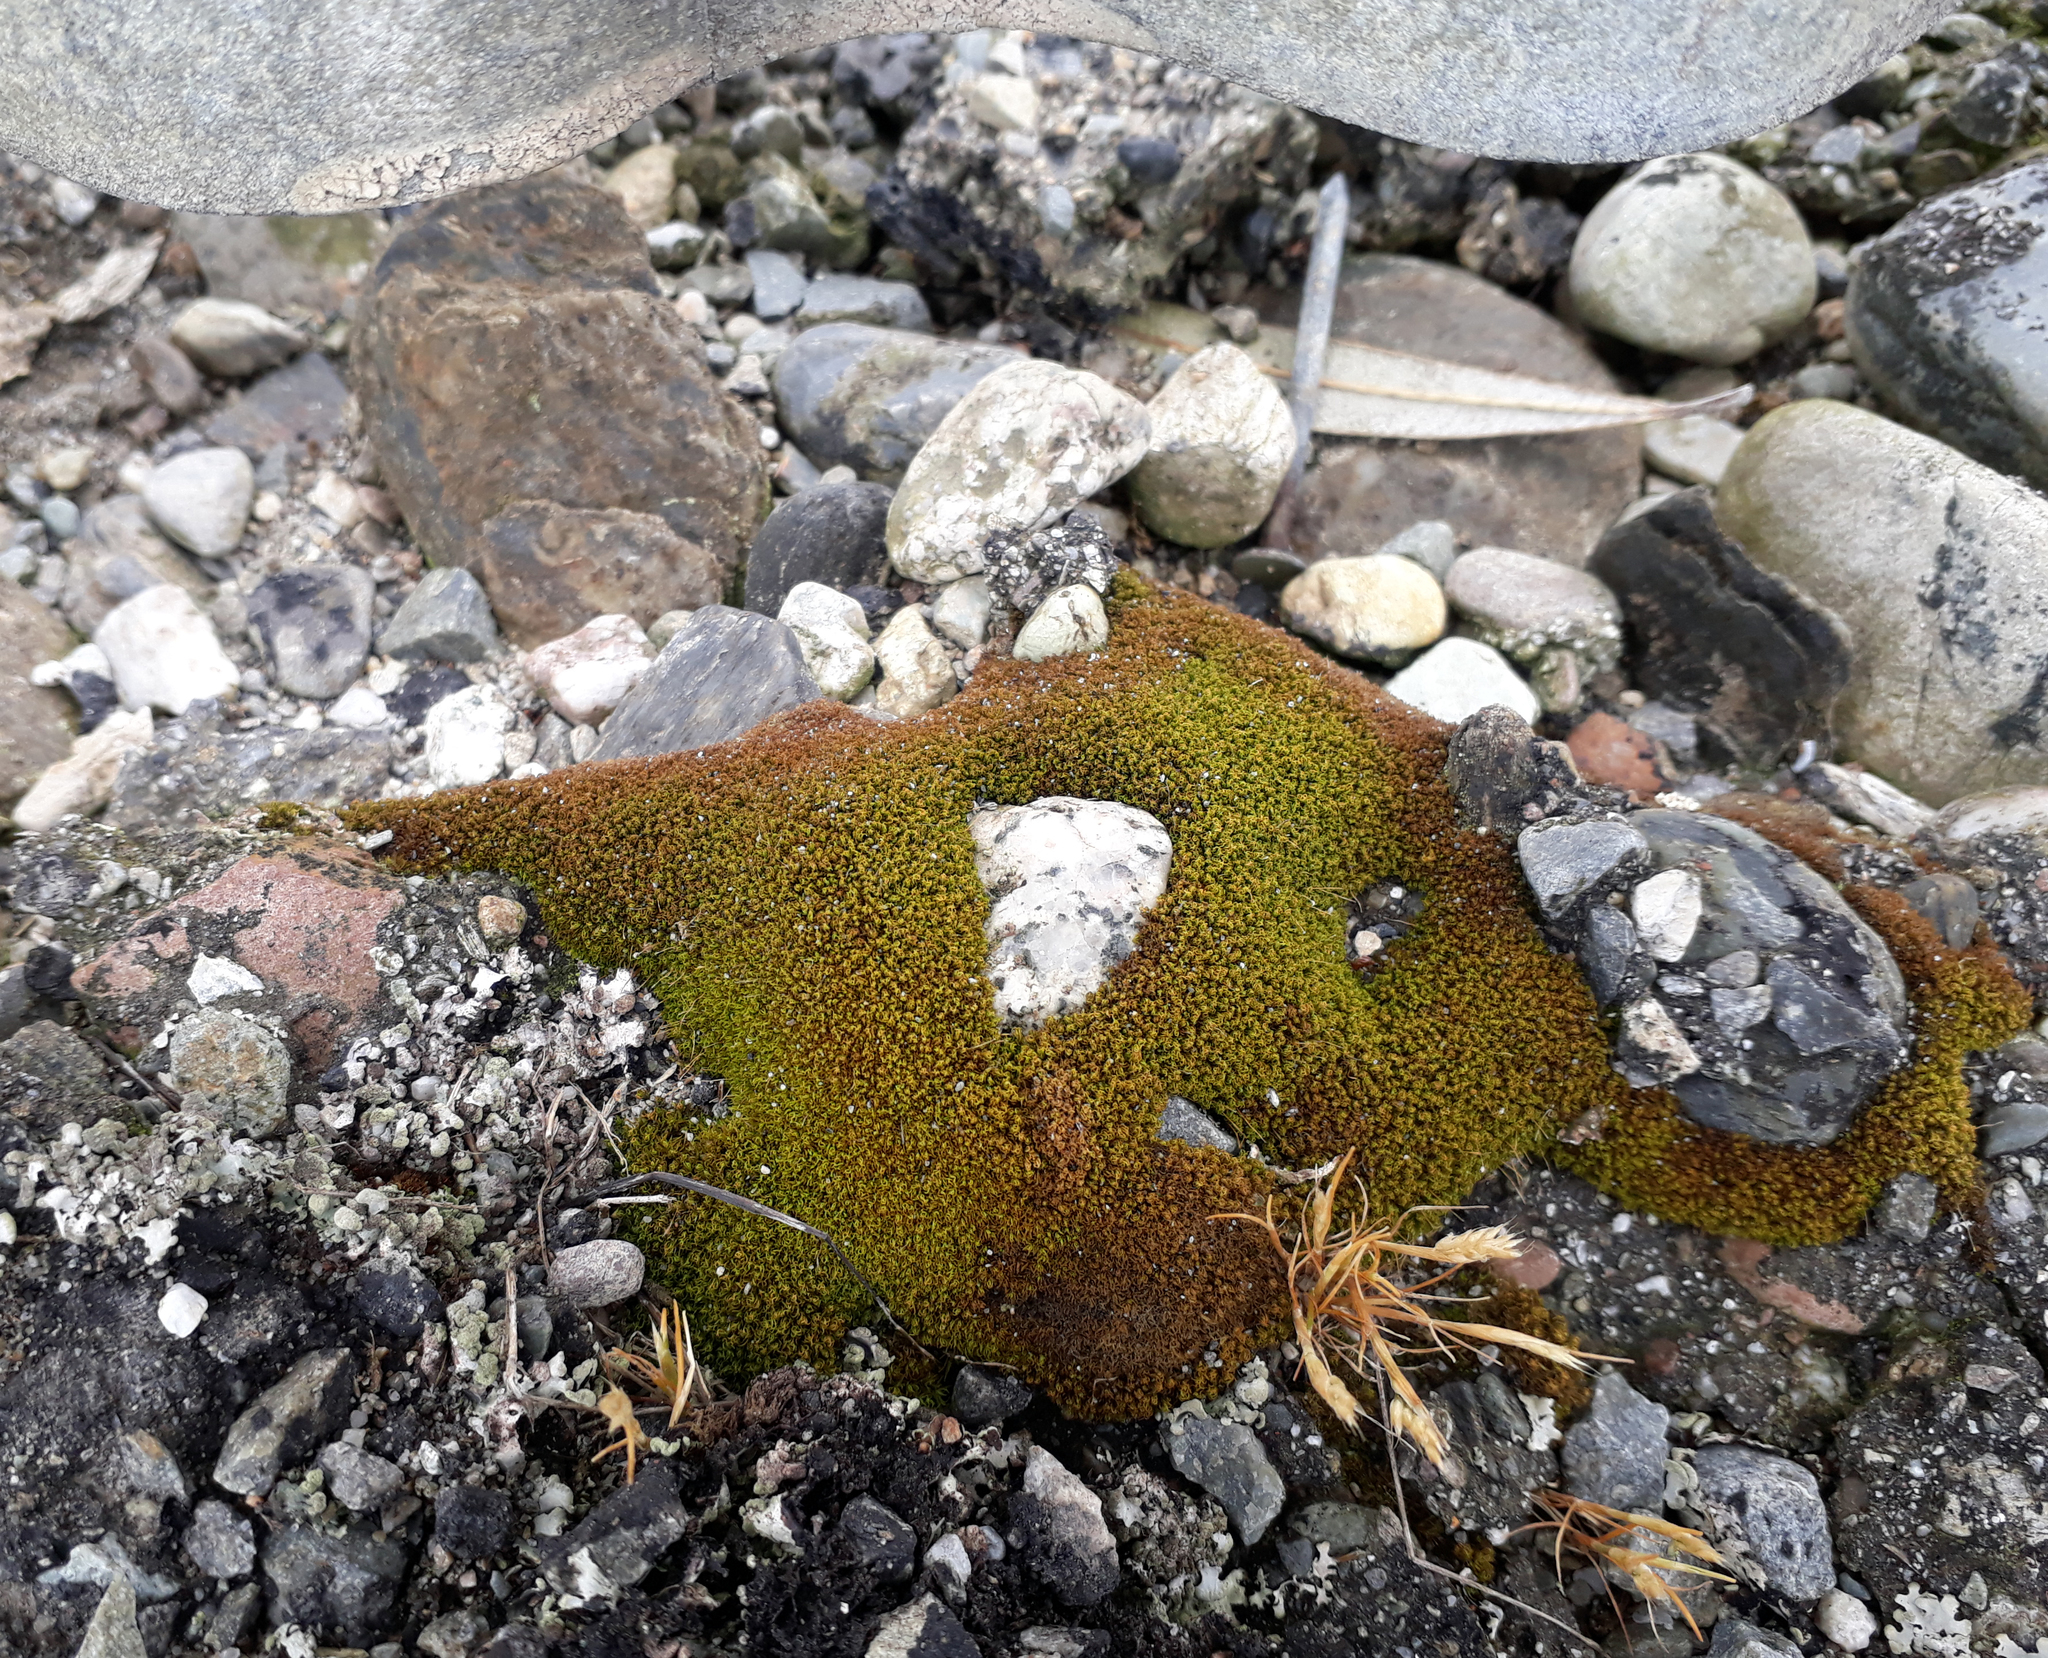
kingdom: Plantae
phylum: Bryophyta
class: Bryopsida
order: Pottiales
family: Pottiaceae
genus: Weissia
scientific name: Weissia controversa
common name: Green-tufted stubble moss
